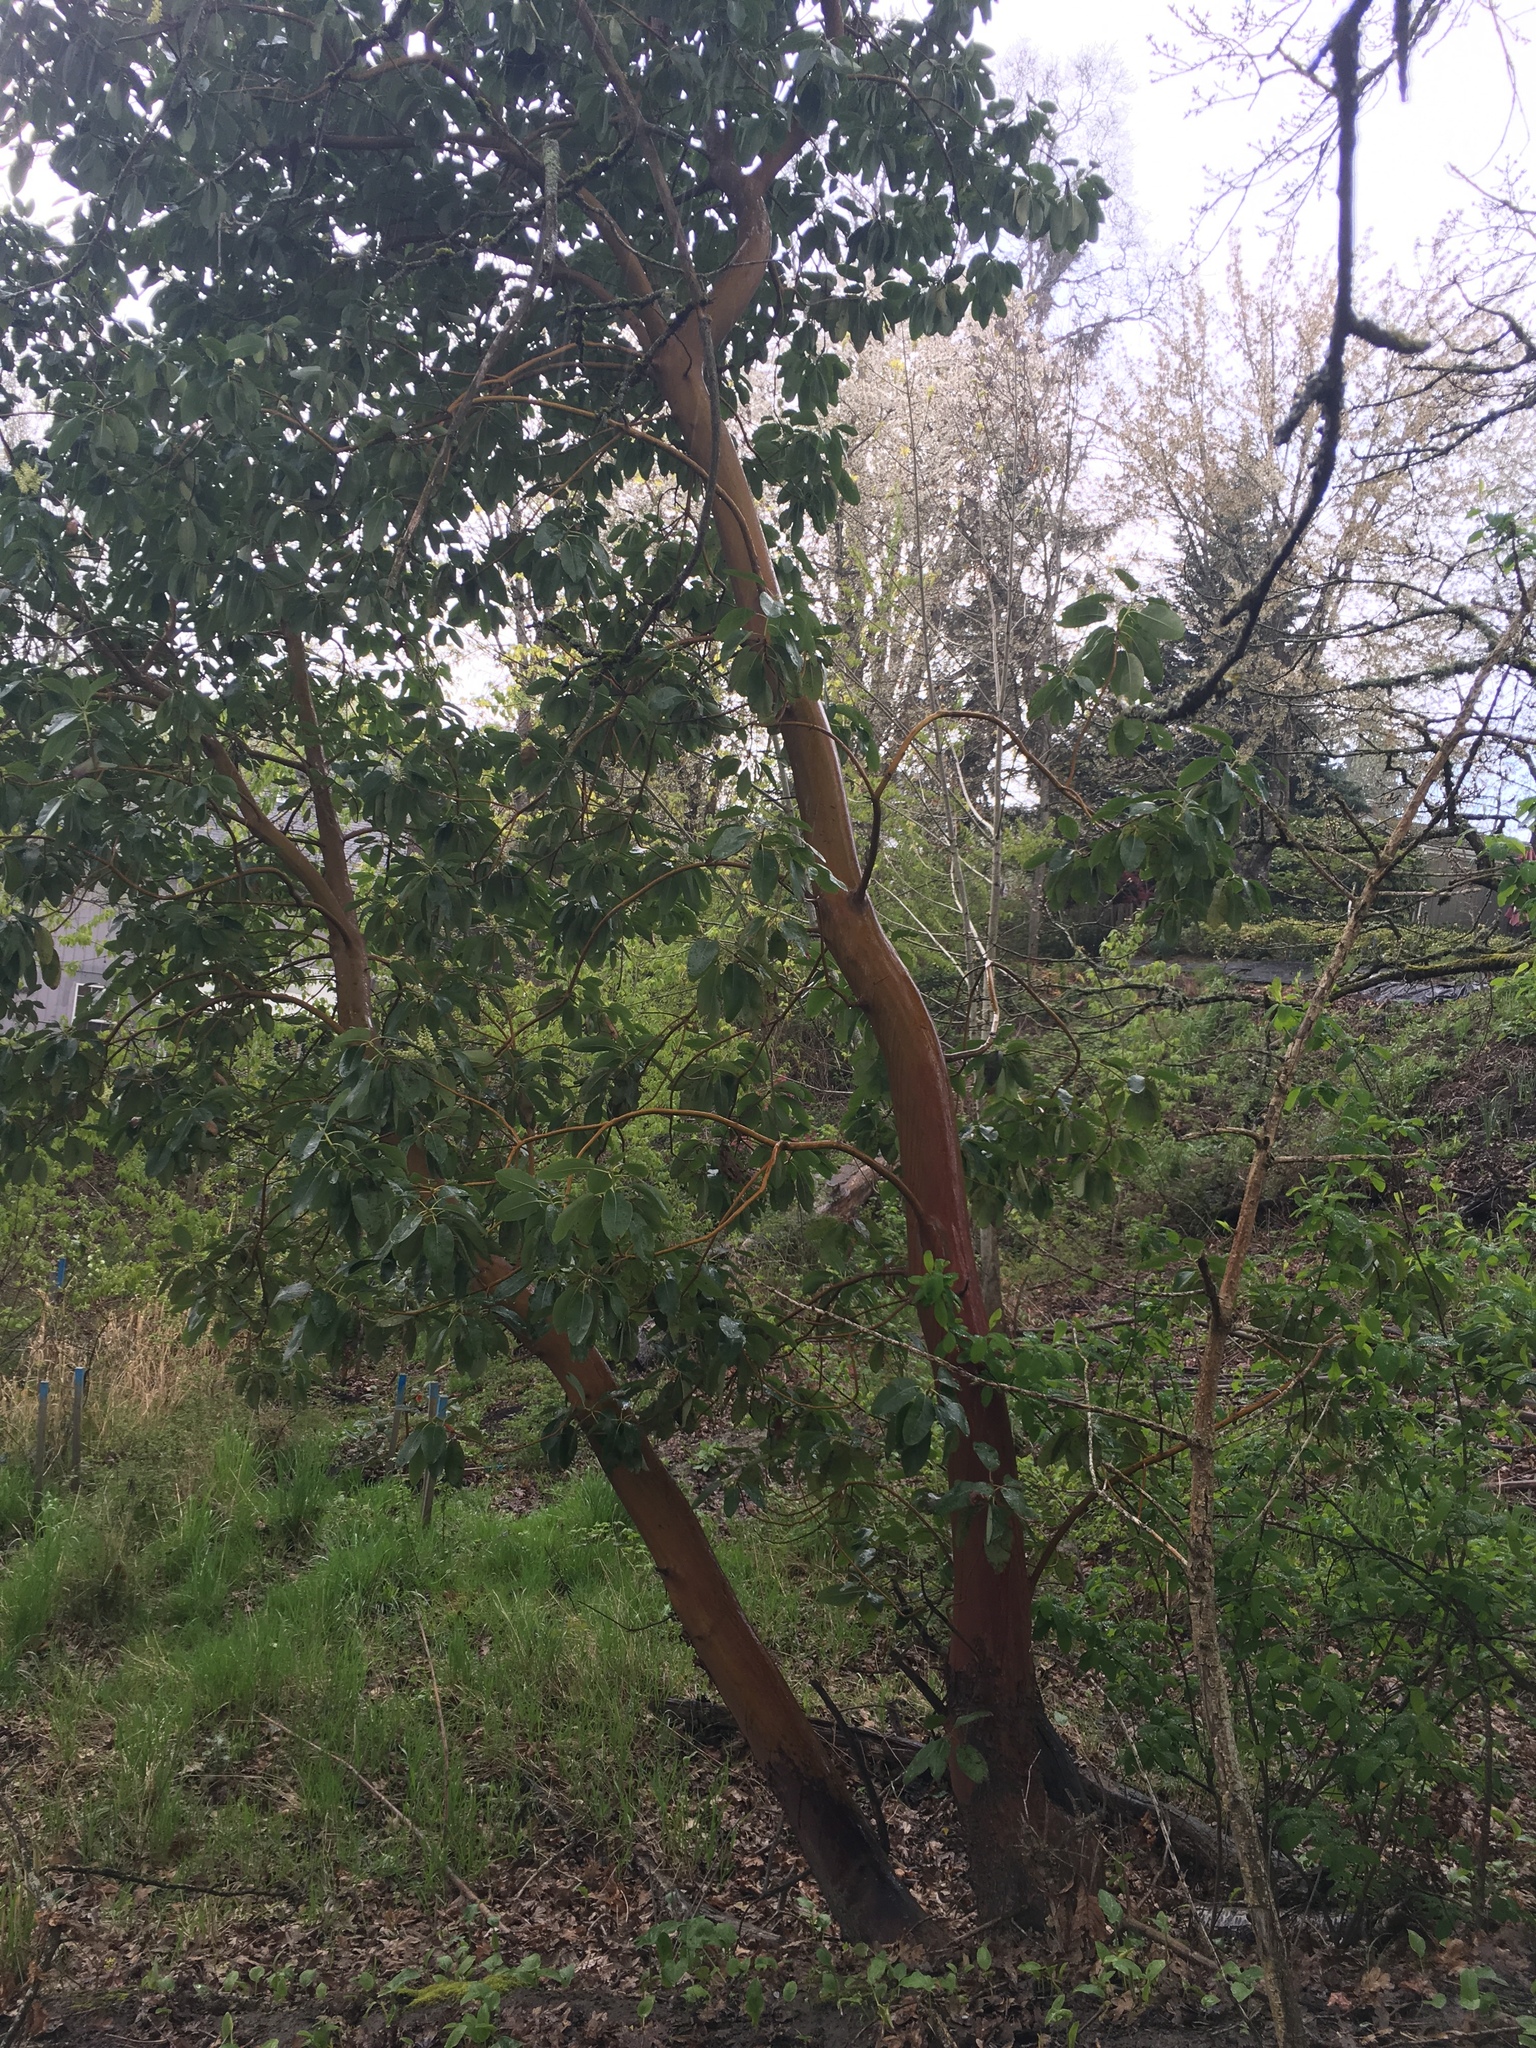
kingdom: Plantae
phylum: Tracheophyta
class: Magnoliopsida
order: Ericales
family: Ericaceae
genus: Arbutus
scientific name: Arbutus menziesii
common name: Pacific madrone
